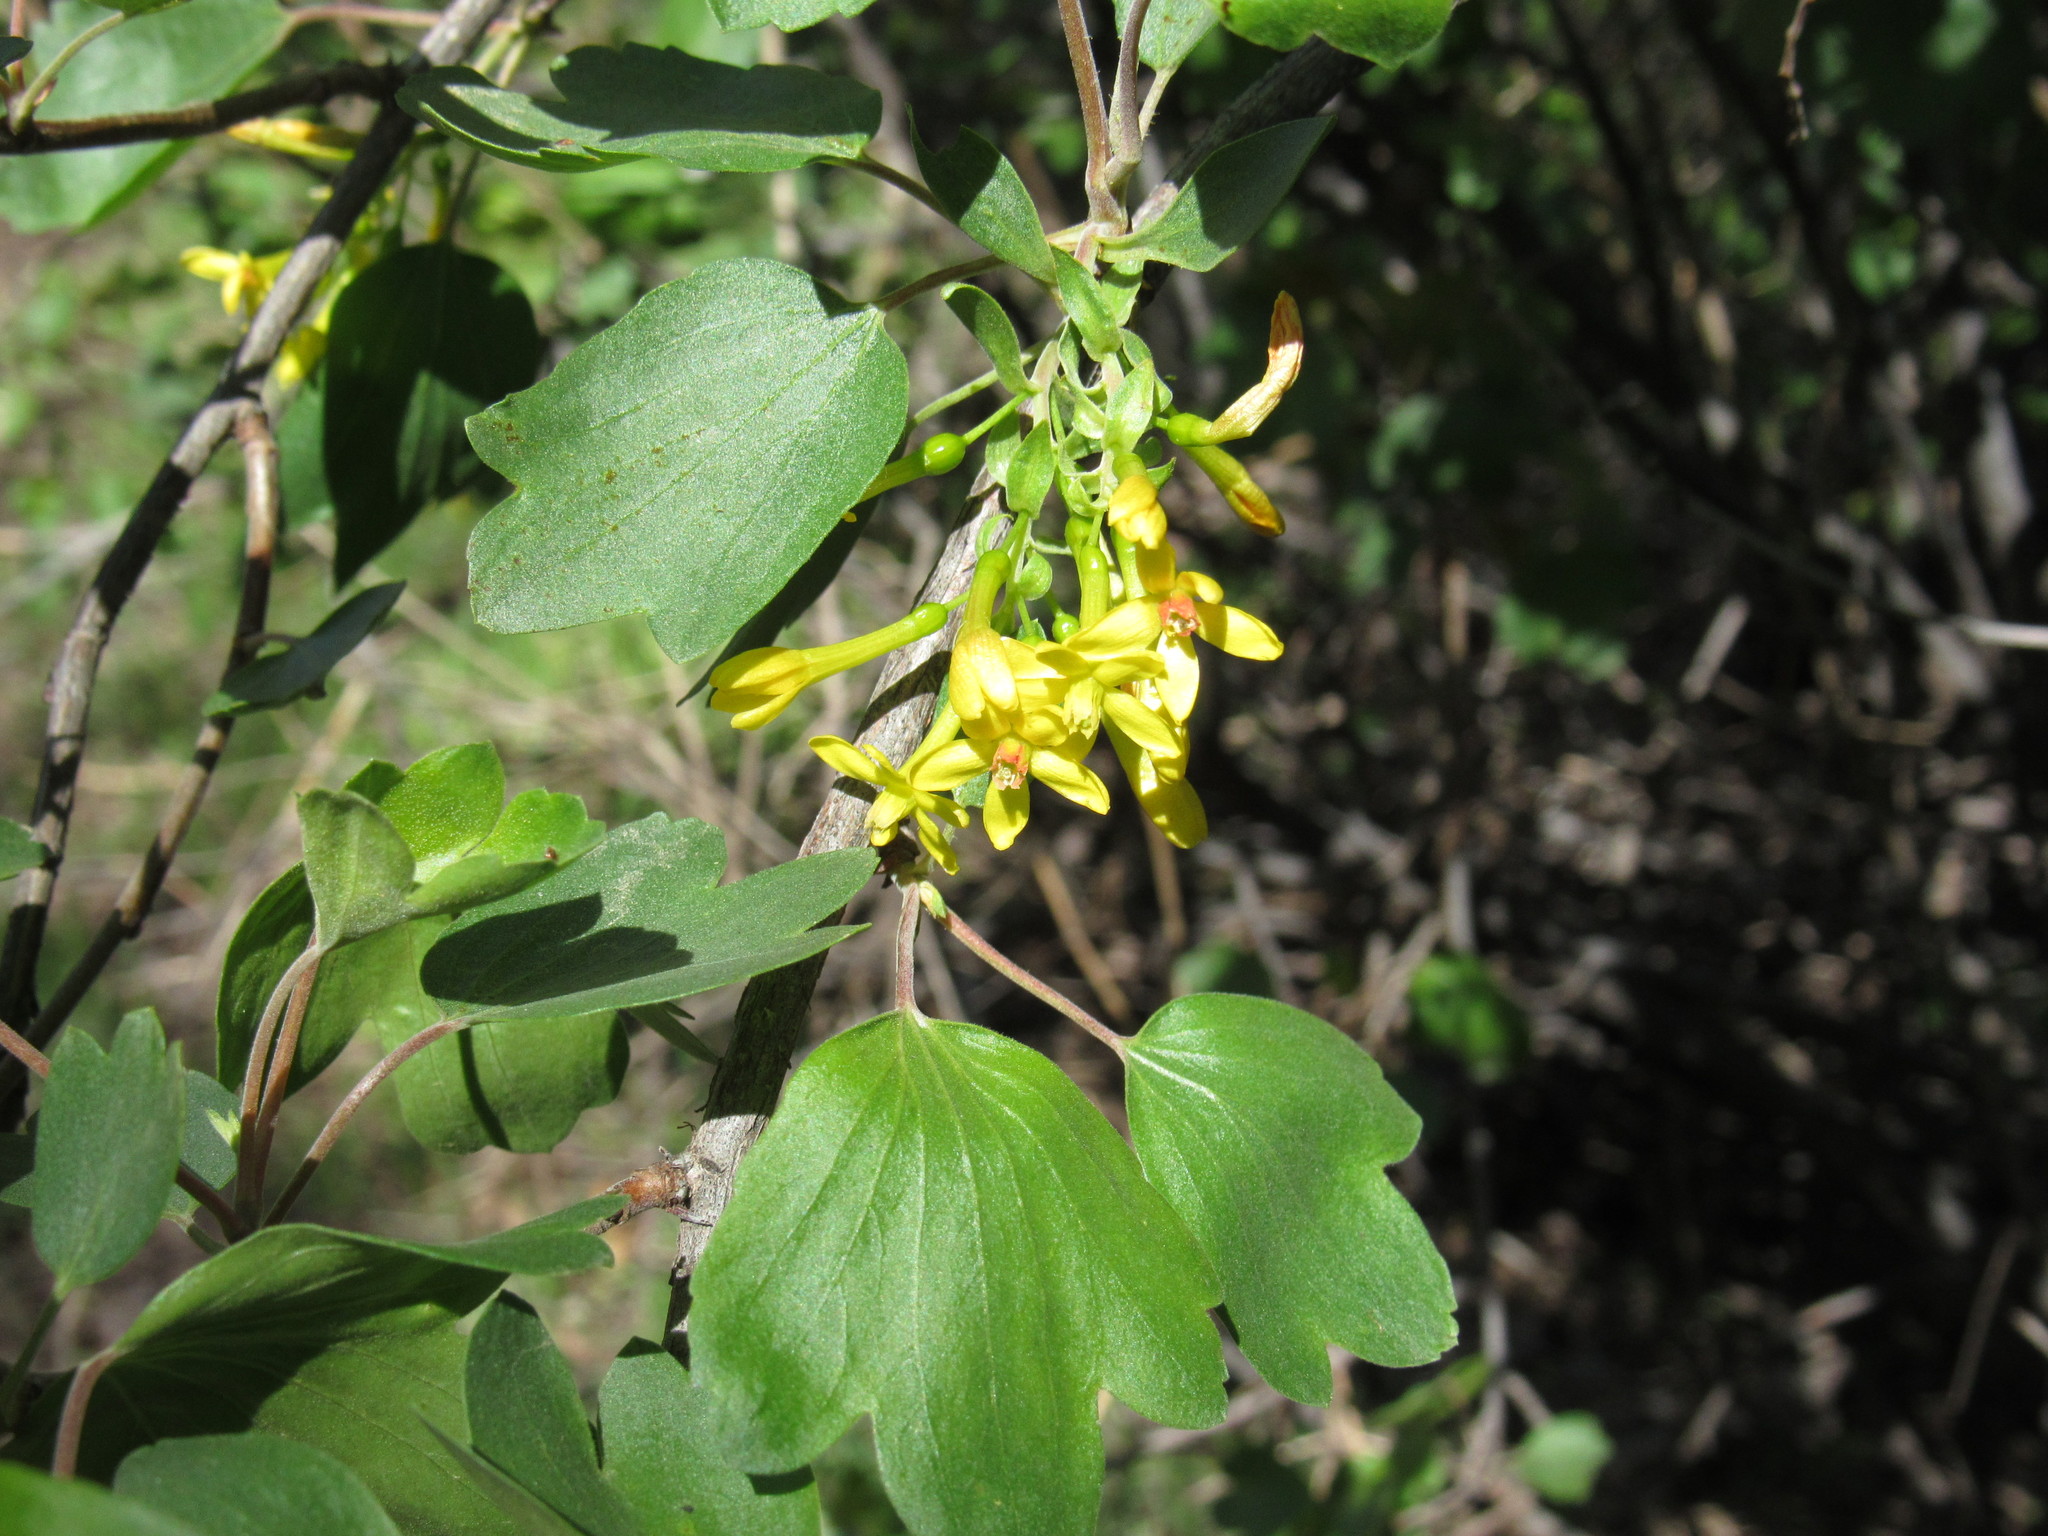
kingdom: Plantae
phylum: Tracheophyta
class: Magnoliopsida
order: Saxifragales
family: Grossulariaceae
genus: Ribes
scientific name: Ribes aureum
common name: Golden currant
